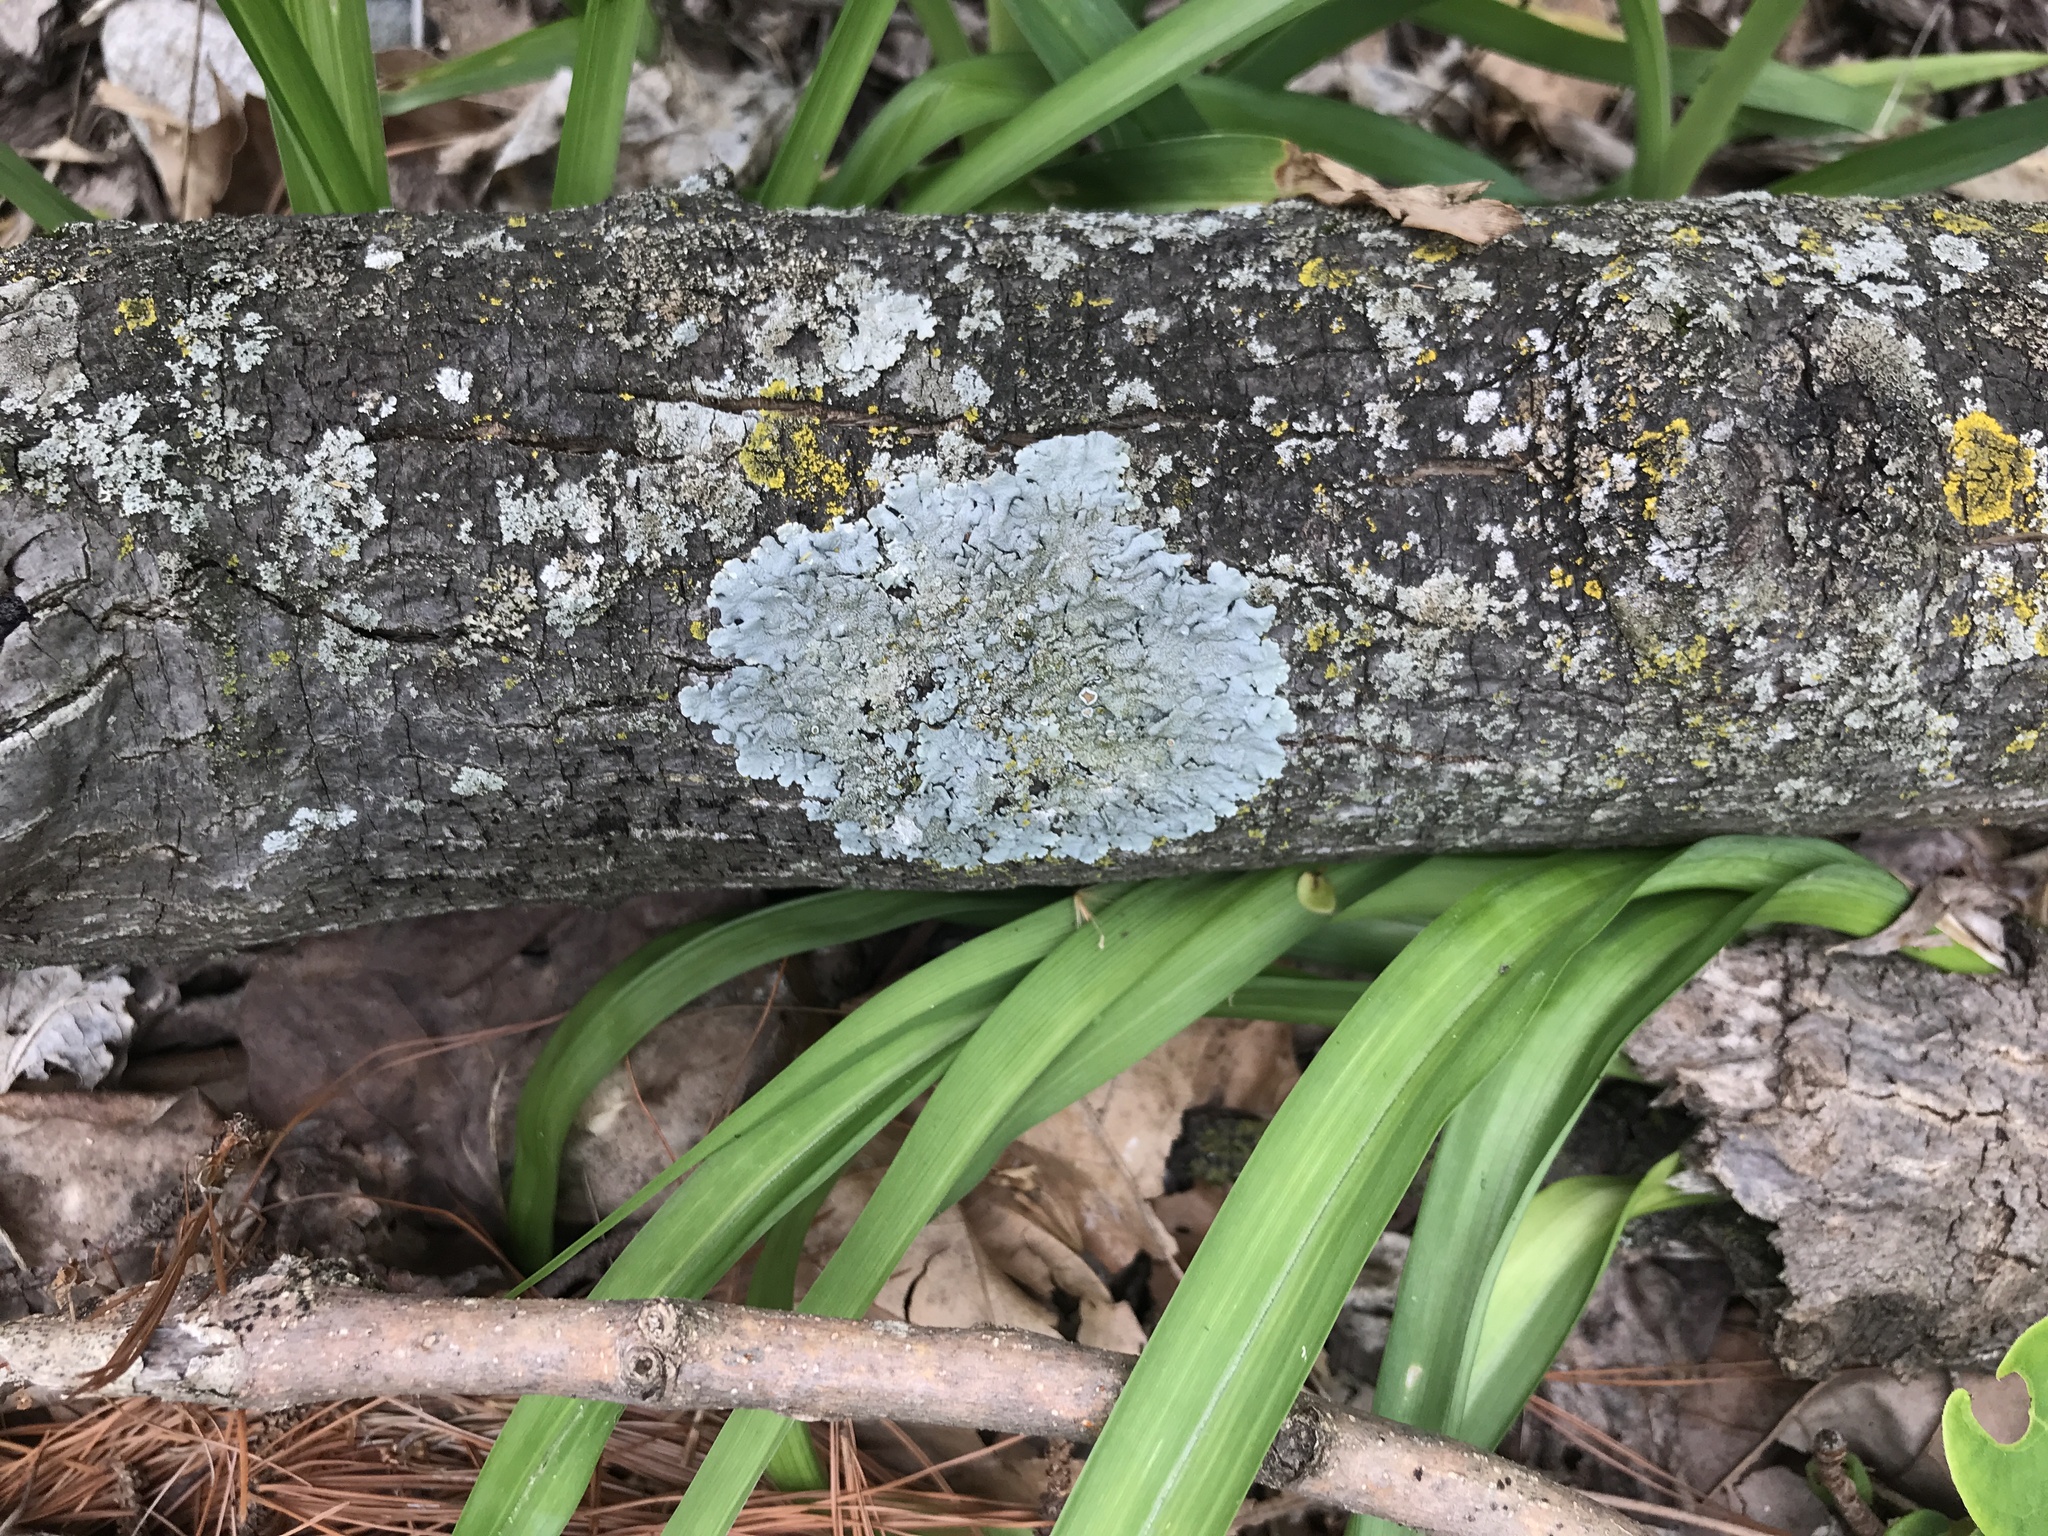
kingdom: Fungi
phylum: Ascomycota
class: Lecanoromycetes
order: Lecanorales
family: Parmeliaceae
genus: Punctelia
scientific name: Punctelia rudecta
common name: Rough speckled shield lichen
